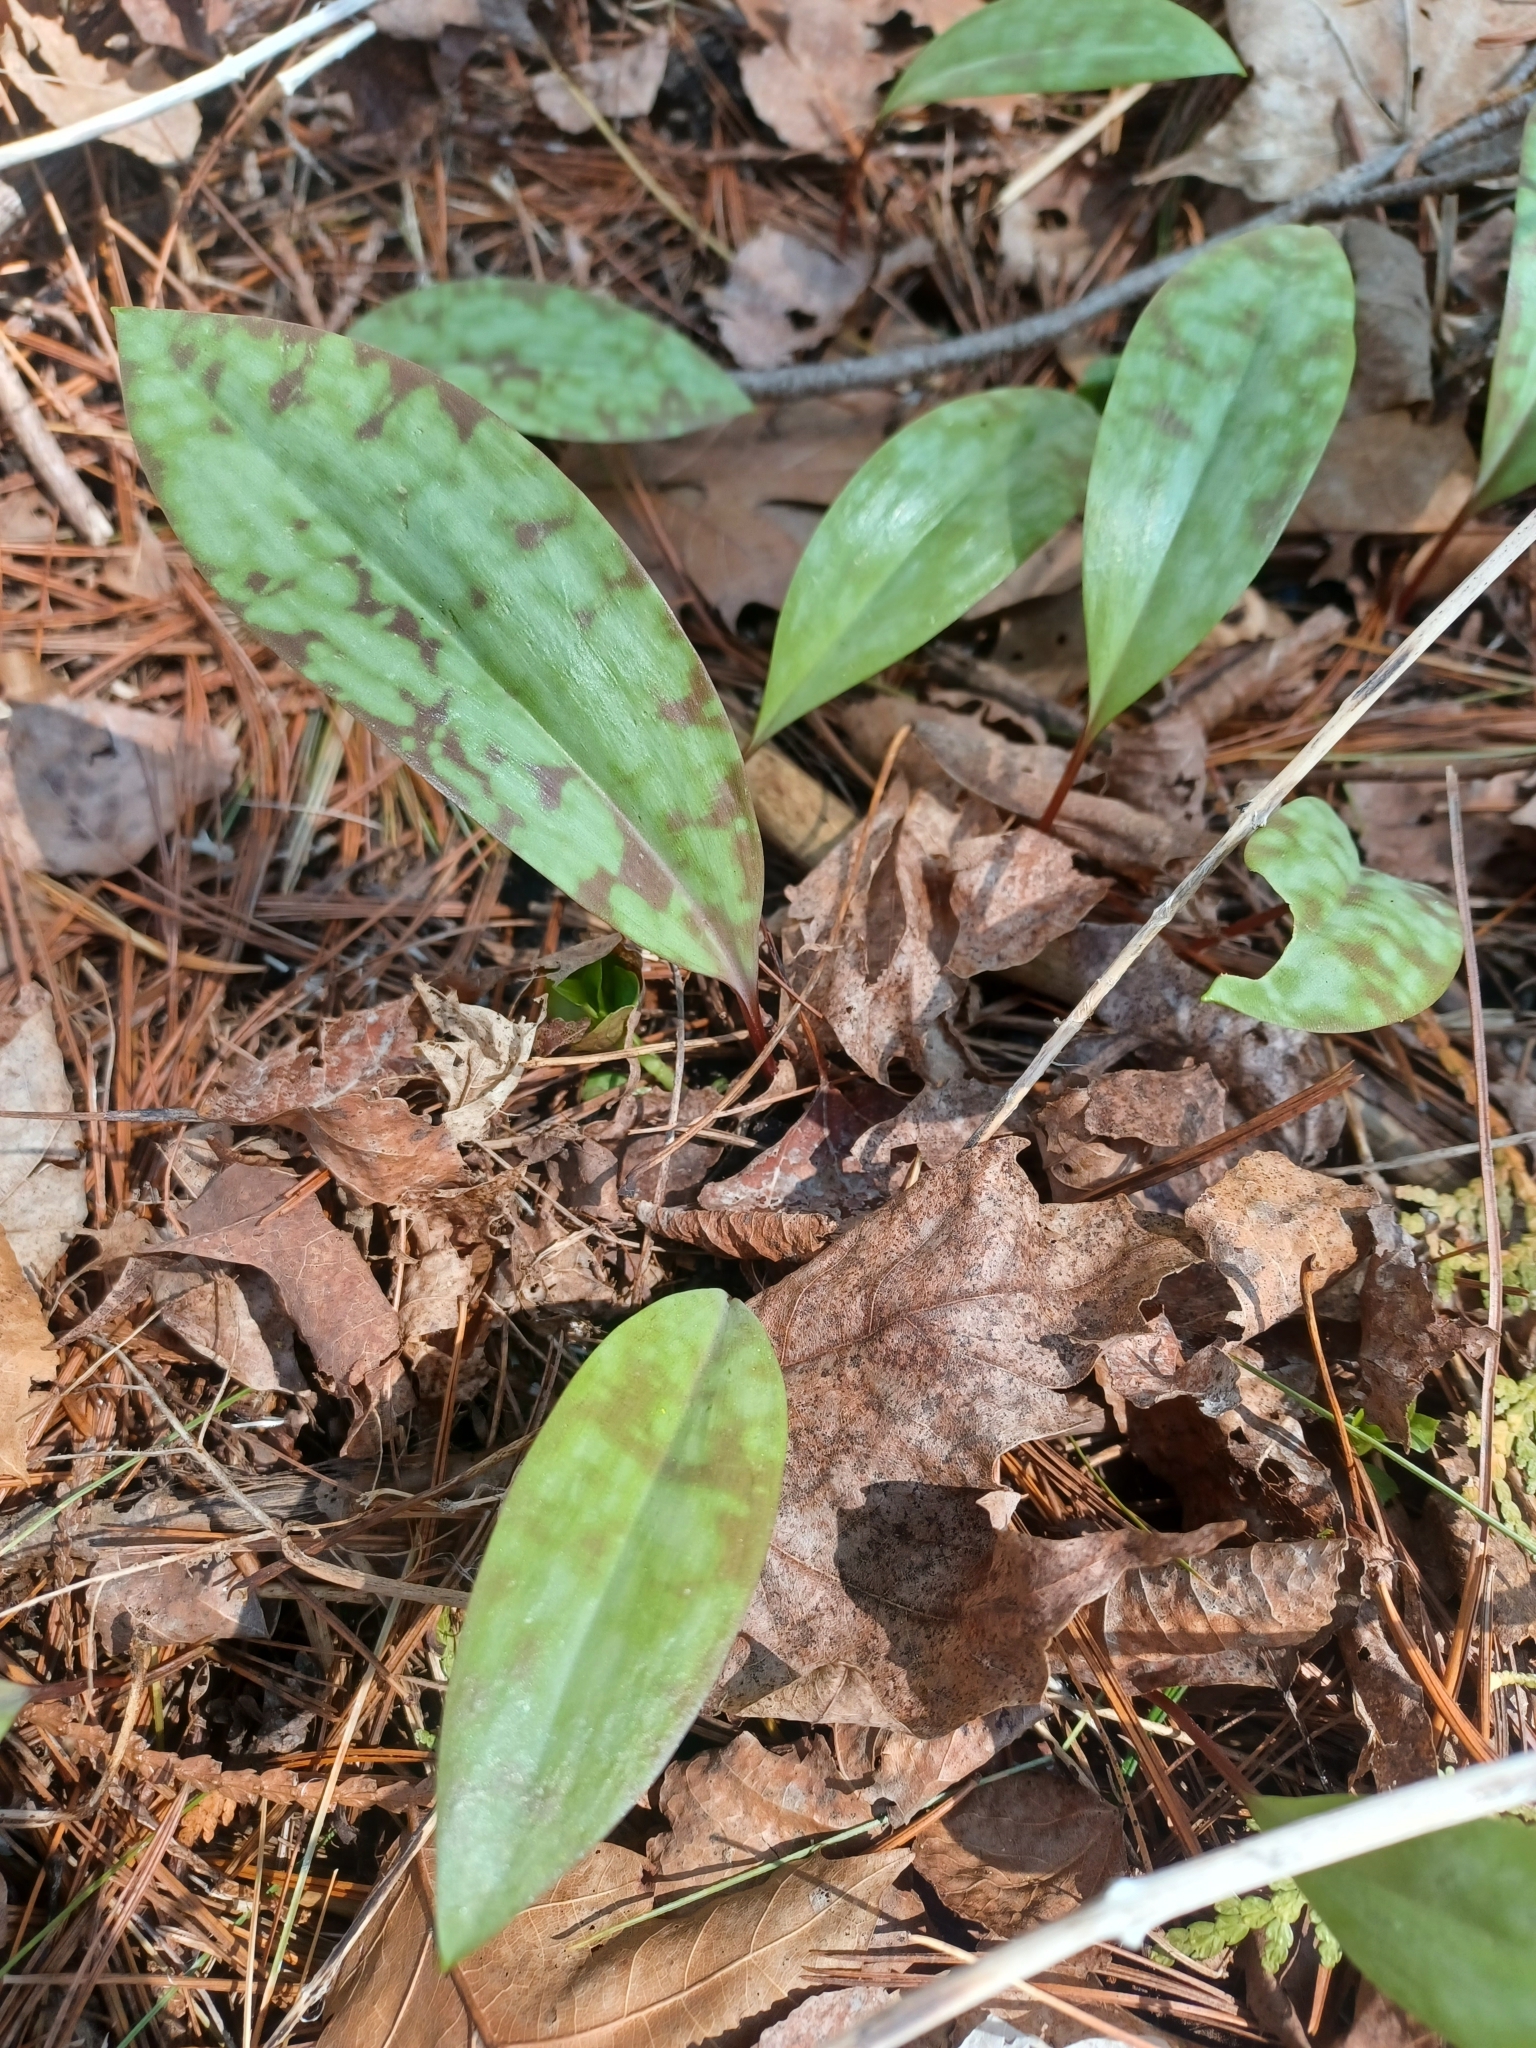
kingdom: Plantae
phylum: Tracheophyta
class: Liliopsida
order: Liliales
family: Liliaceae
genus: Erythronium
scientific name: Erythronium americanum
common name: Yellow adder's-tongue
